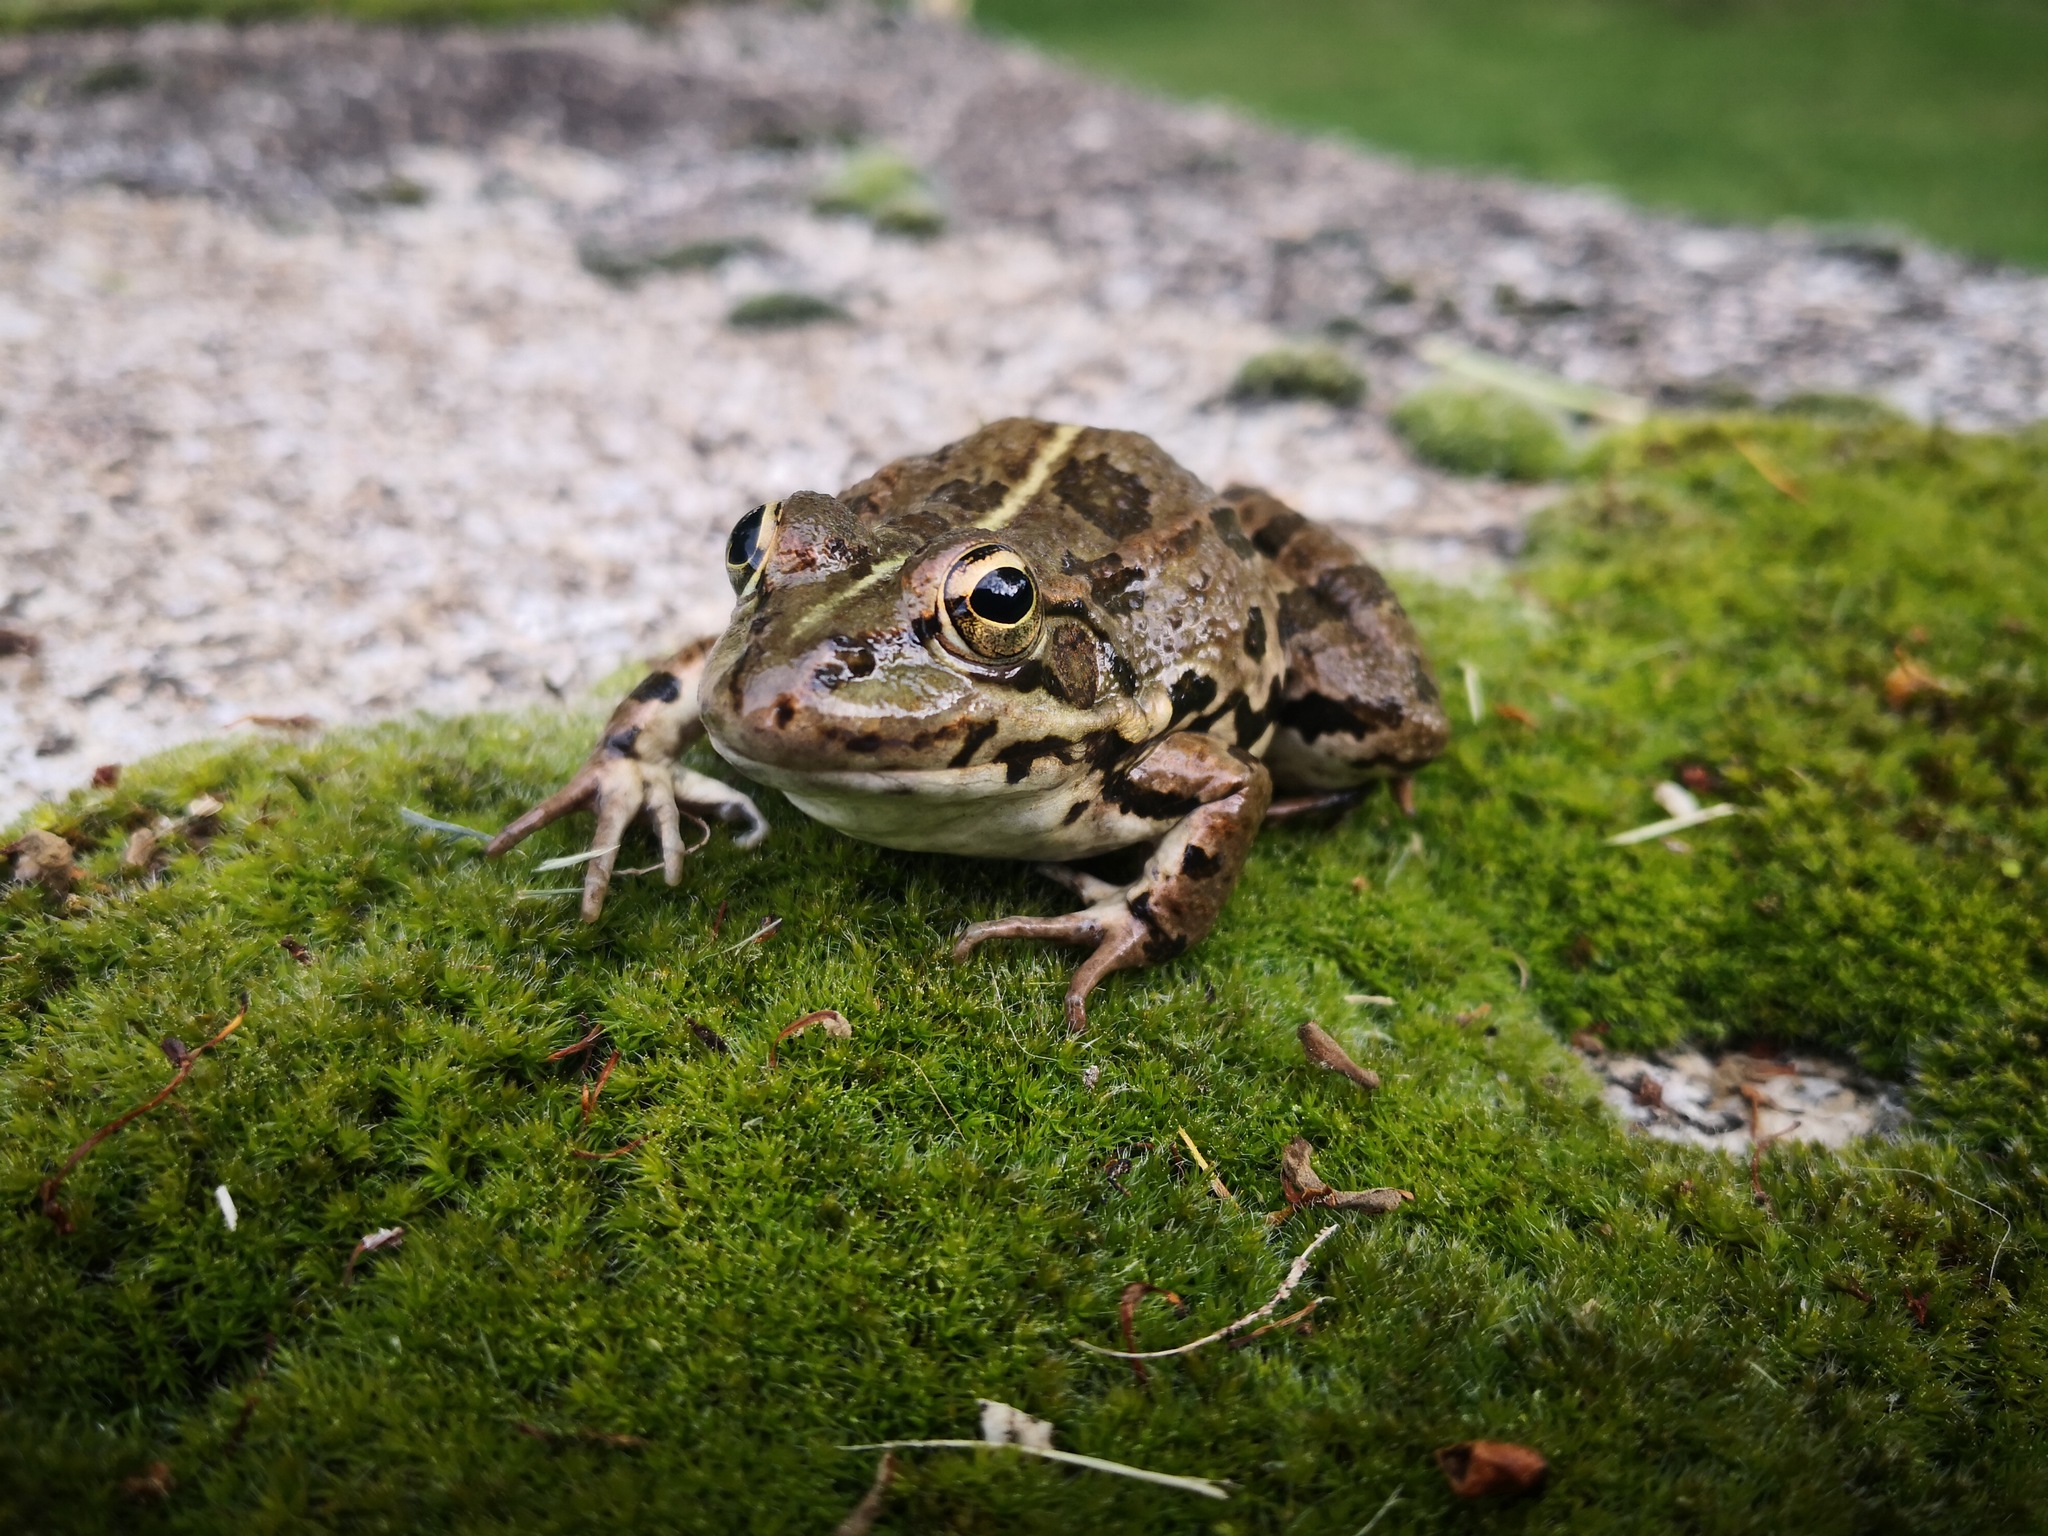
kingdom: Animalia
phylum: Chordata
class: Amphibia
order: Anura
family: Ranidae
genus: Pelophylax
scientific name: Pelophylax perezi
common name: Perez's frog
